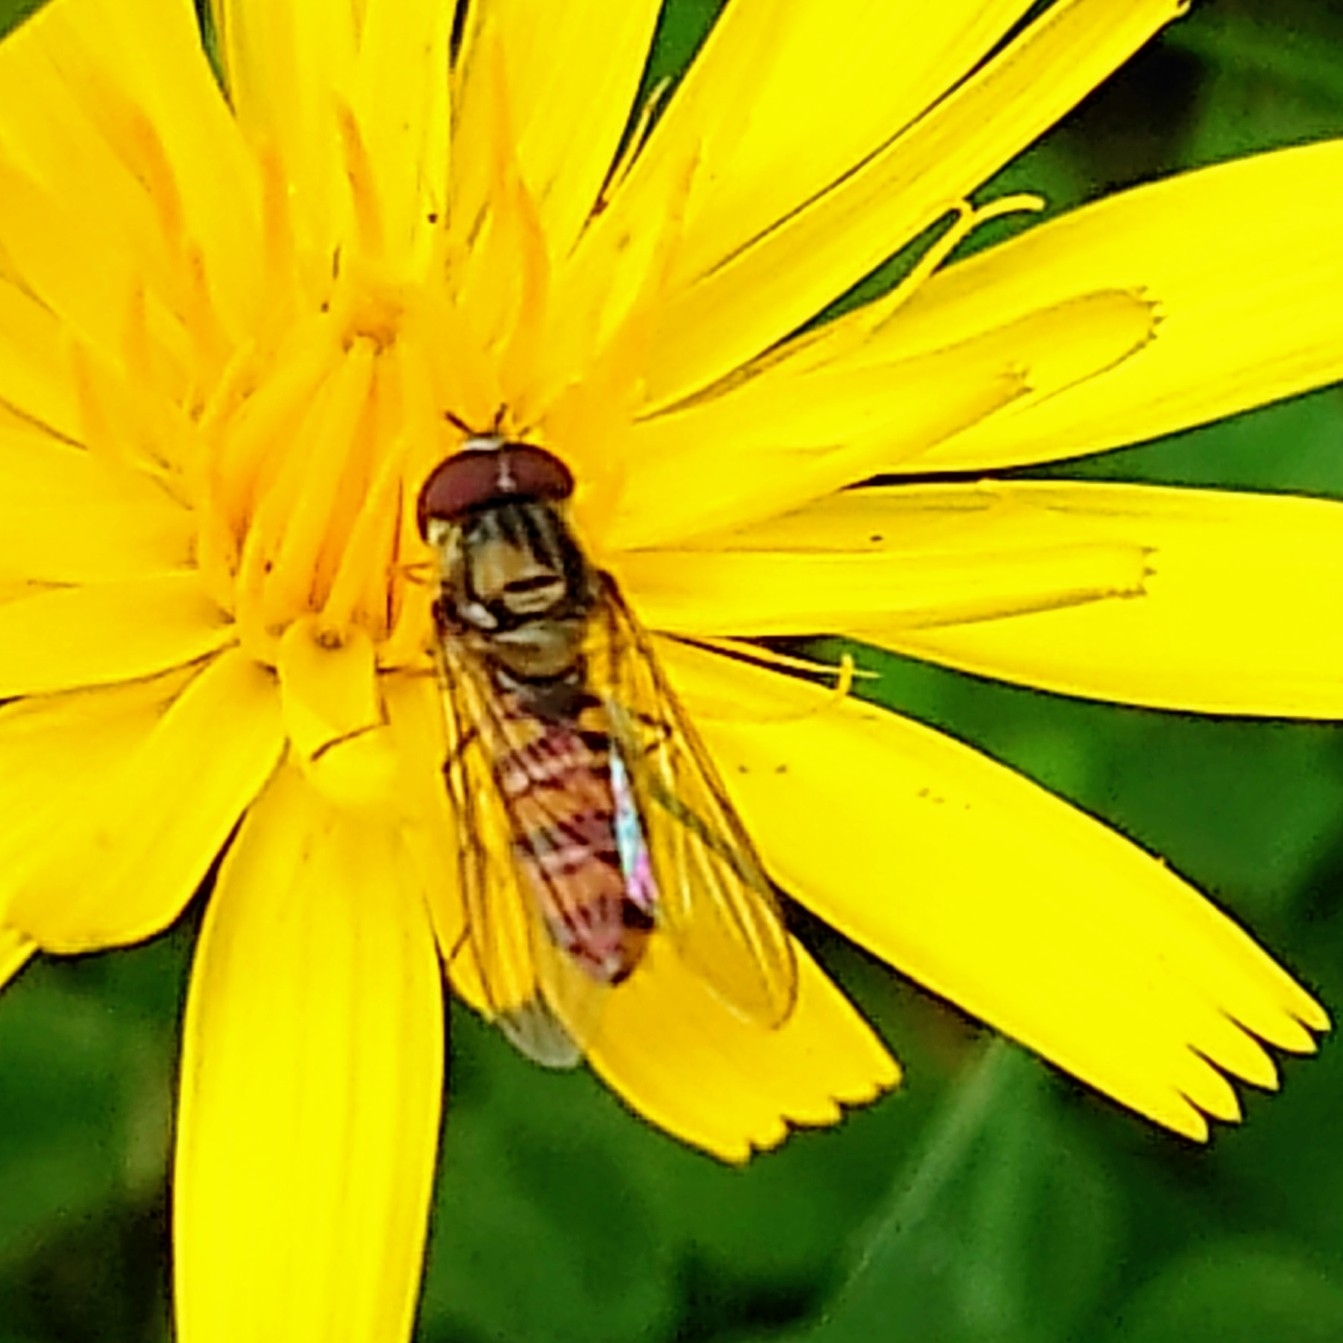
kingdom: Animalia
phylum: Arthropoda
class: Insecta
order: Diptera
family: Syrphidae
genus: Episyrphus
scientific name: Episyrphus balteatus
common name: Marmalade hoverfly
